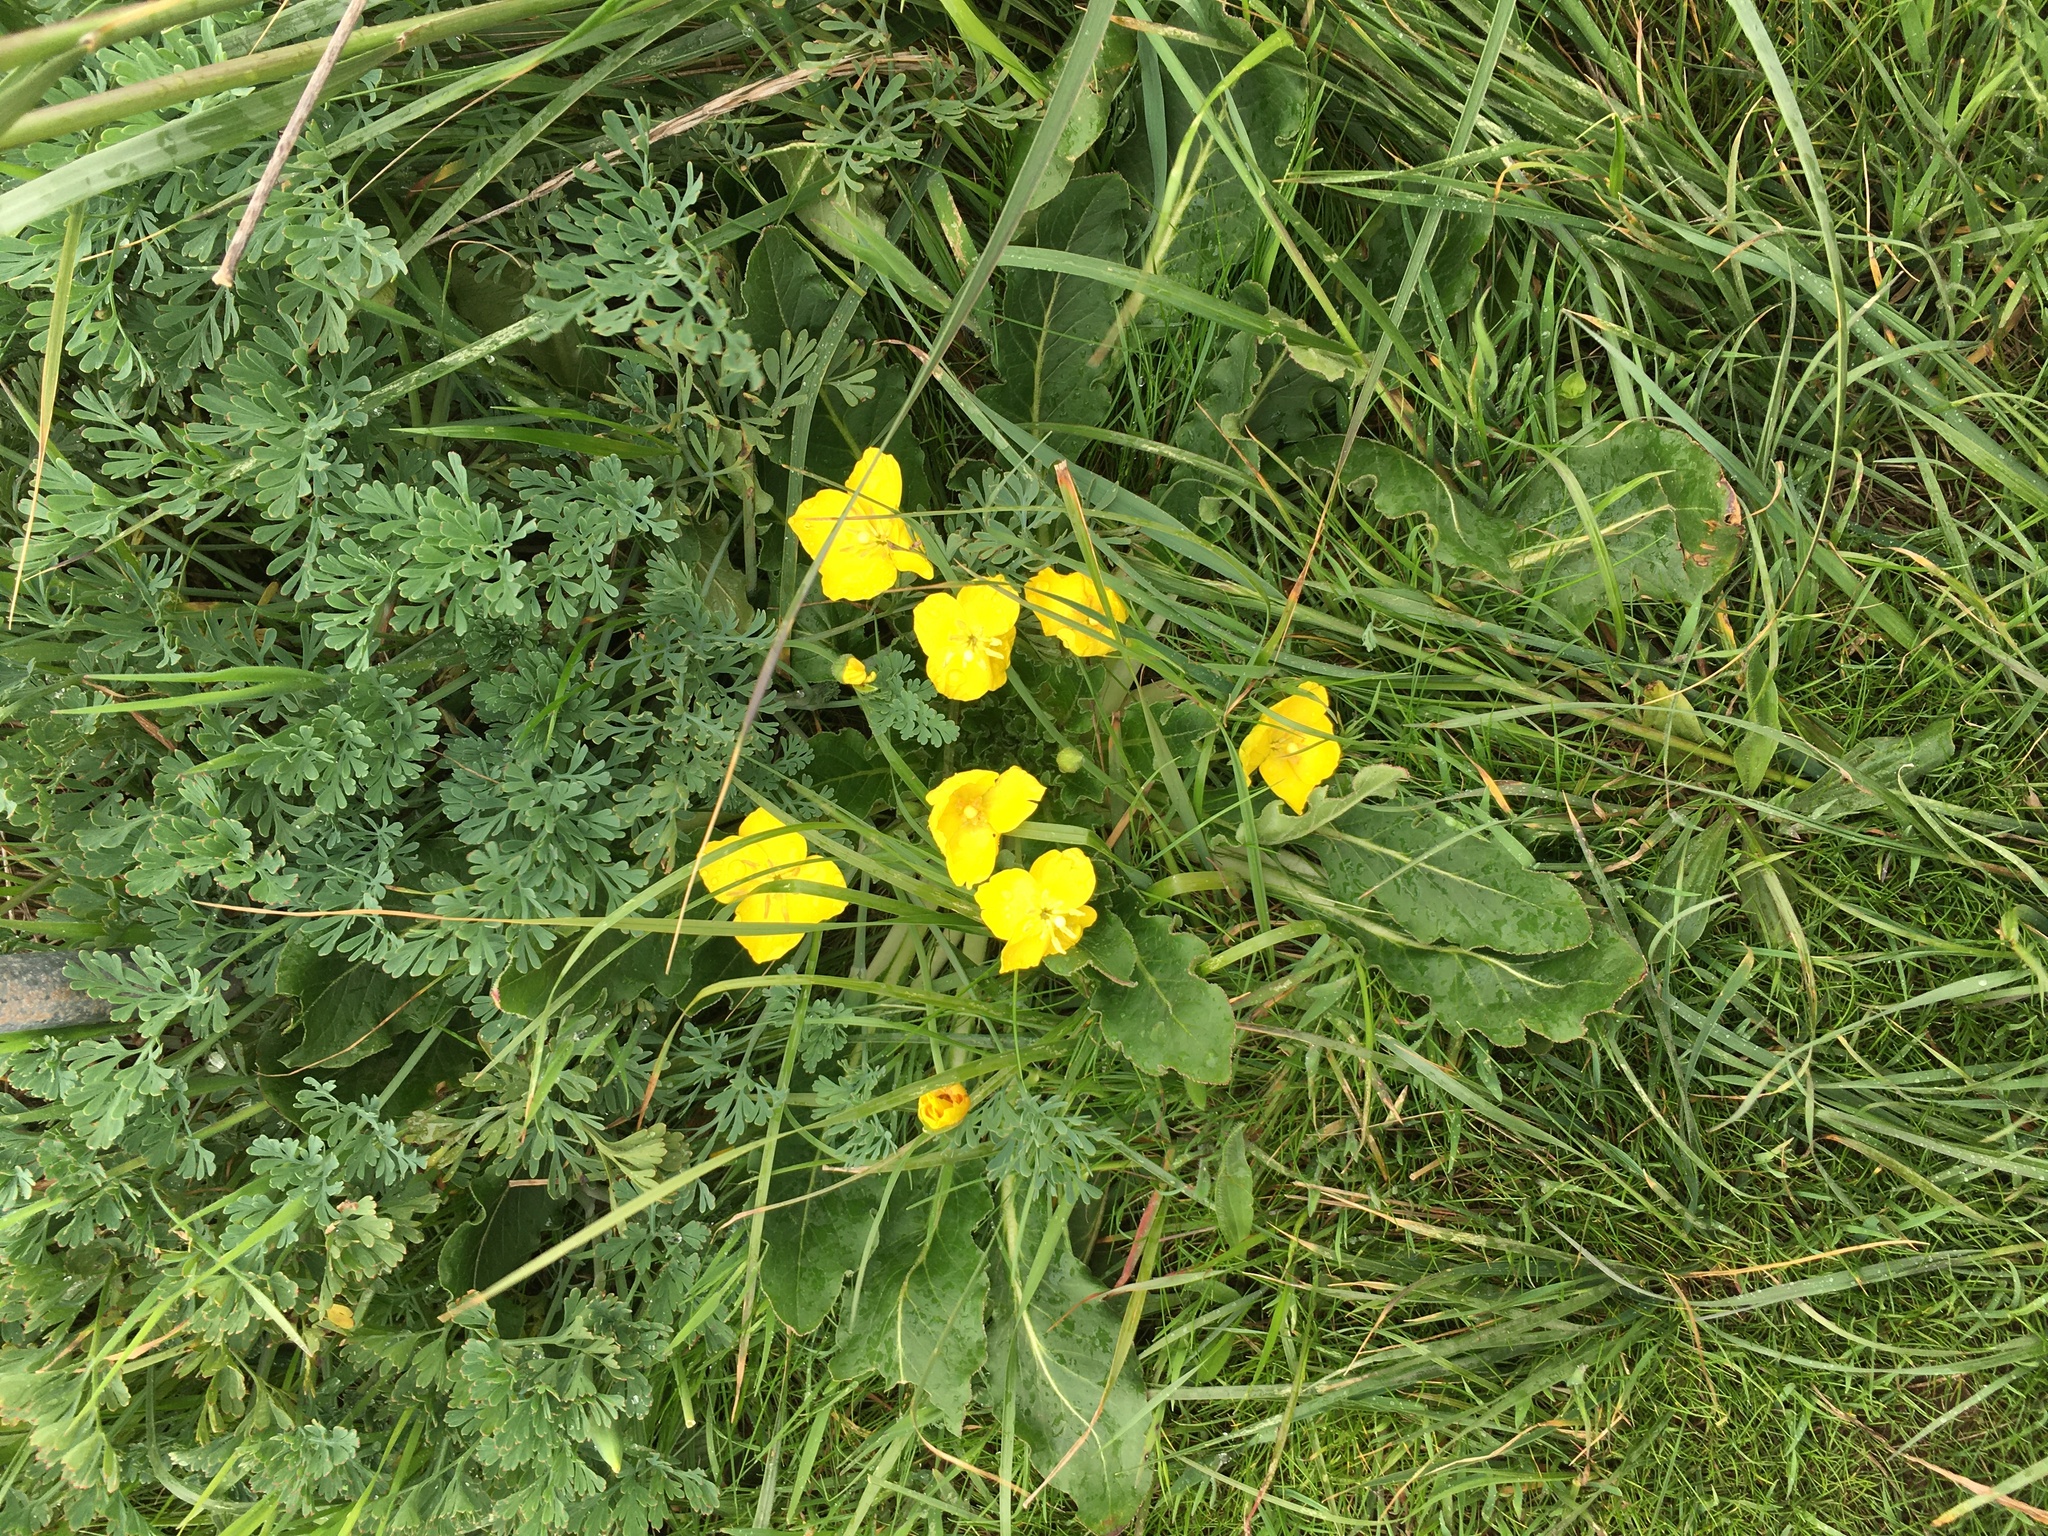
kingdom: Plantae
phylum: Tracheophyta
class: Magnoliopsida
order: Myrtales
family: Onagraceae
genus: Taraxia
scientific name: Taraxia ovata
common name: Goldeneggs
